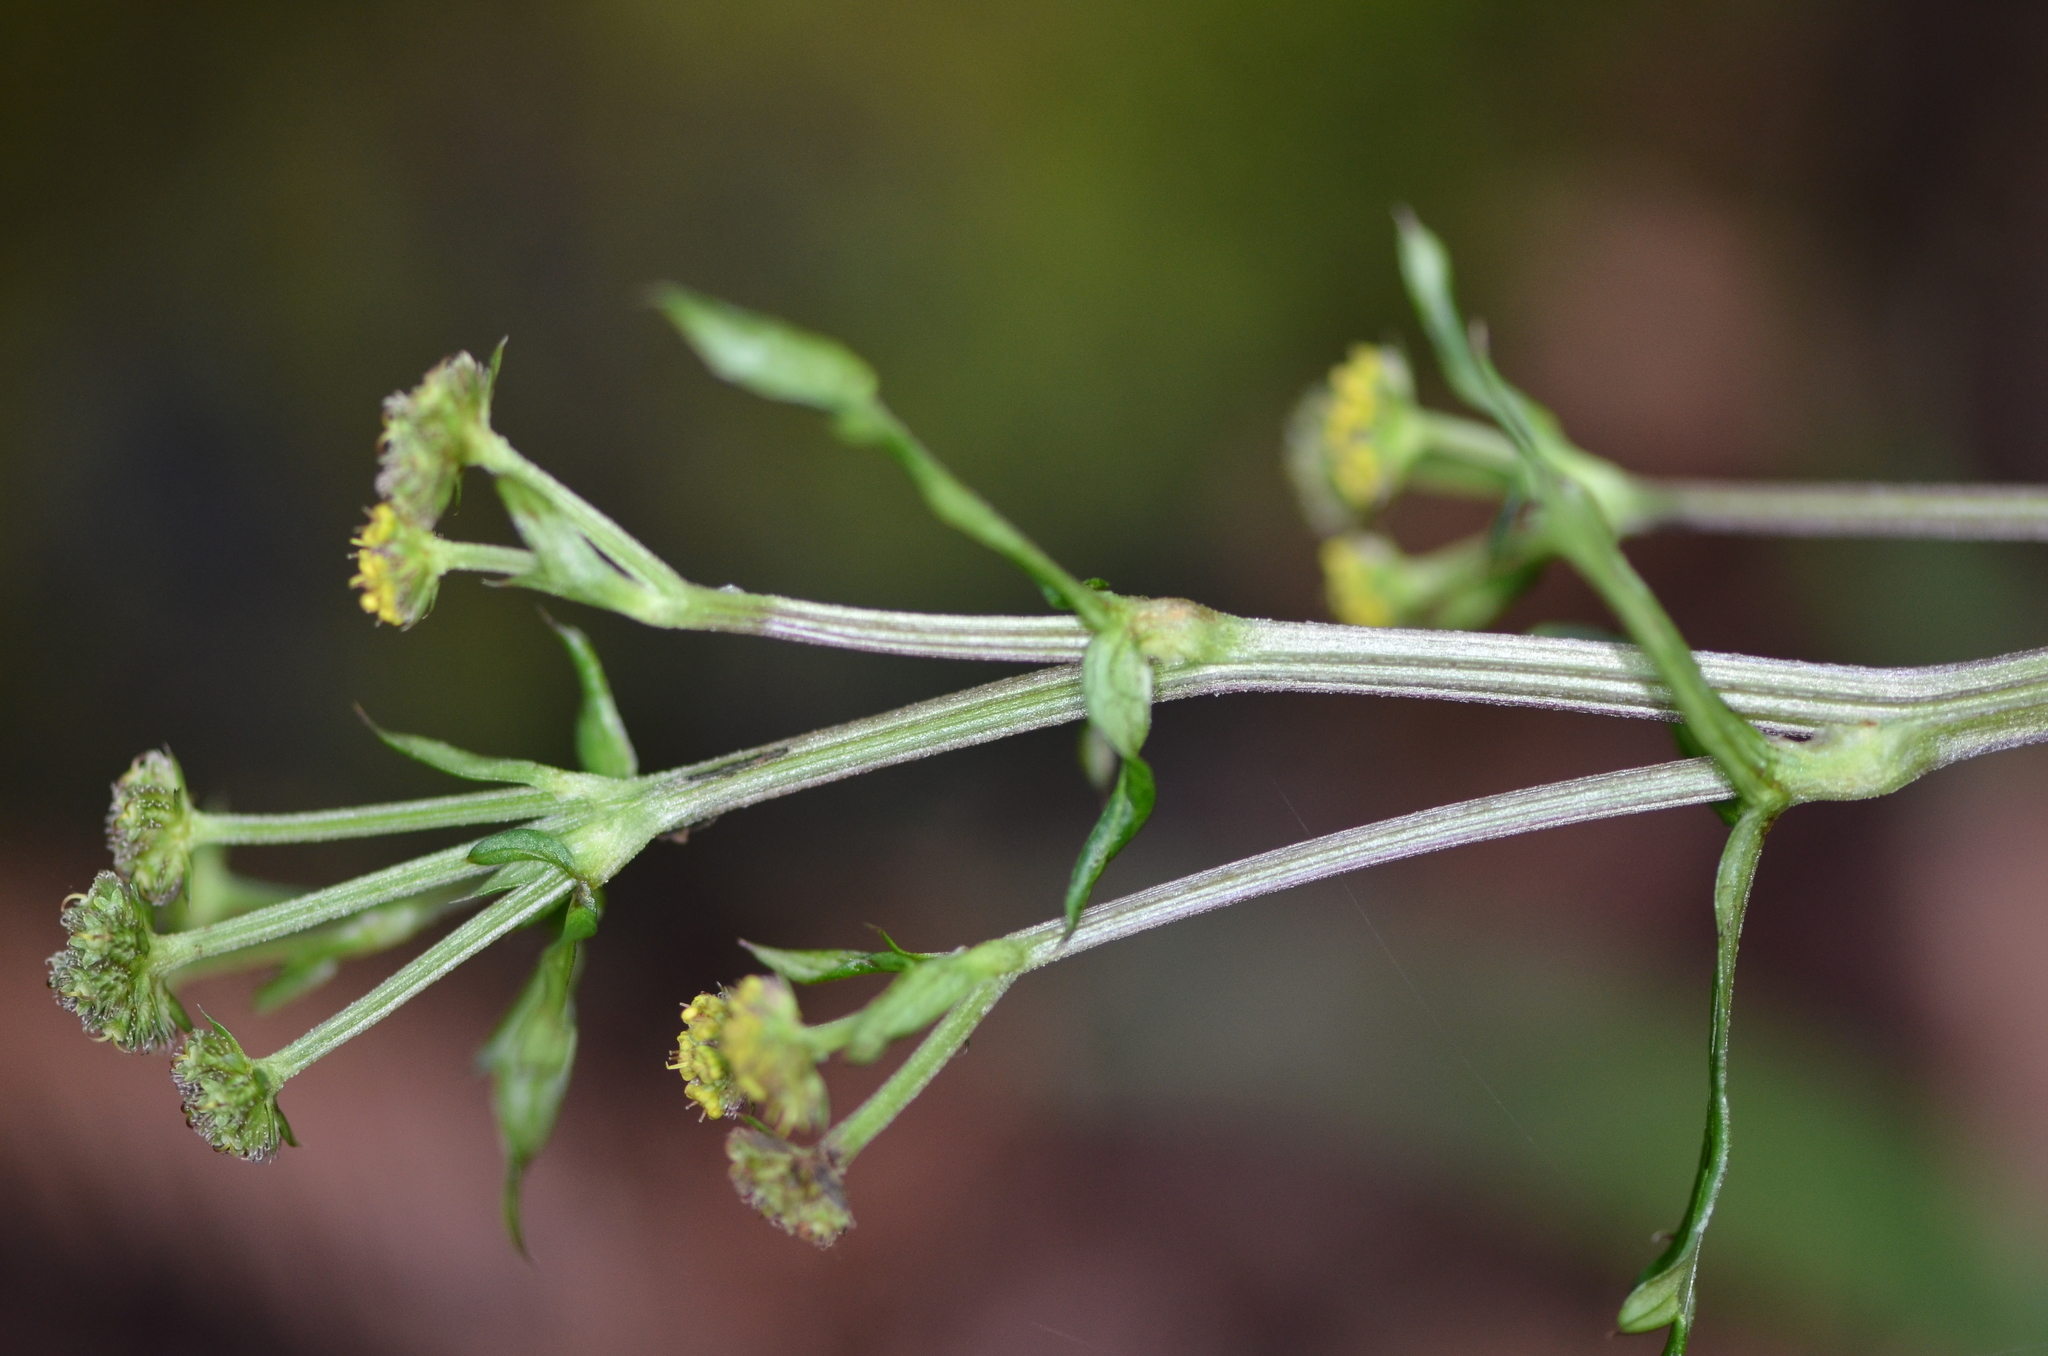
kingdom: Plantae
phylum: Tracheophyta
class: Magnoliopsida
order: Apiales
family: Apiaceae
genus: Sanicula
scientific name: Sanicula crassicaulis
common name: Western snakeroot
